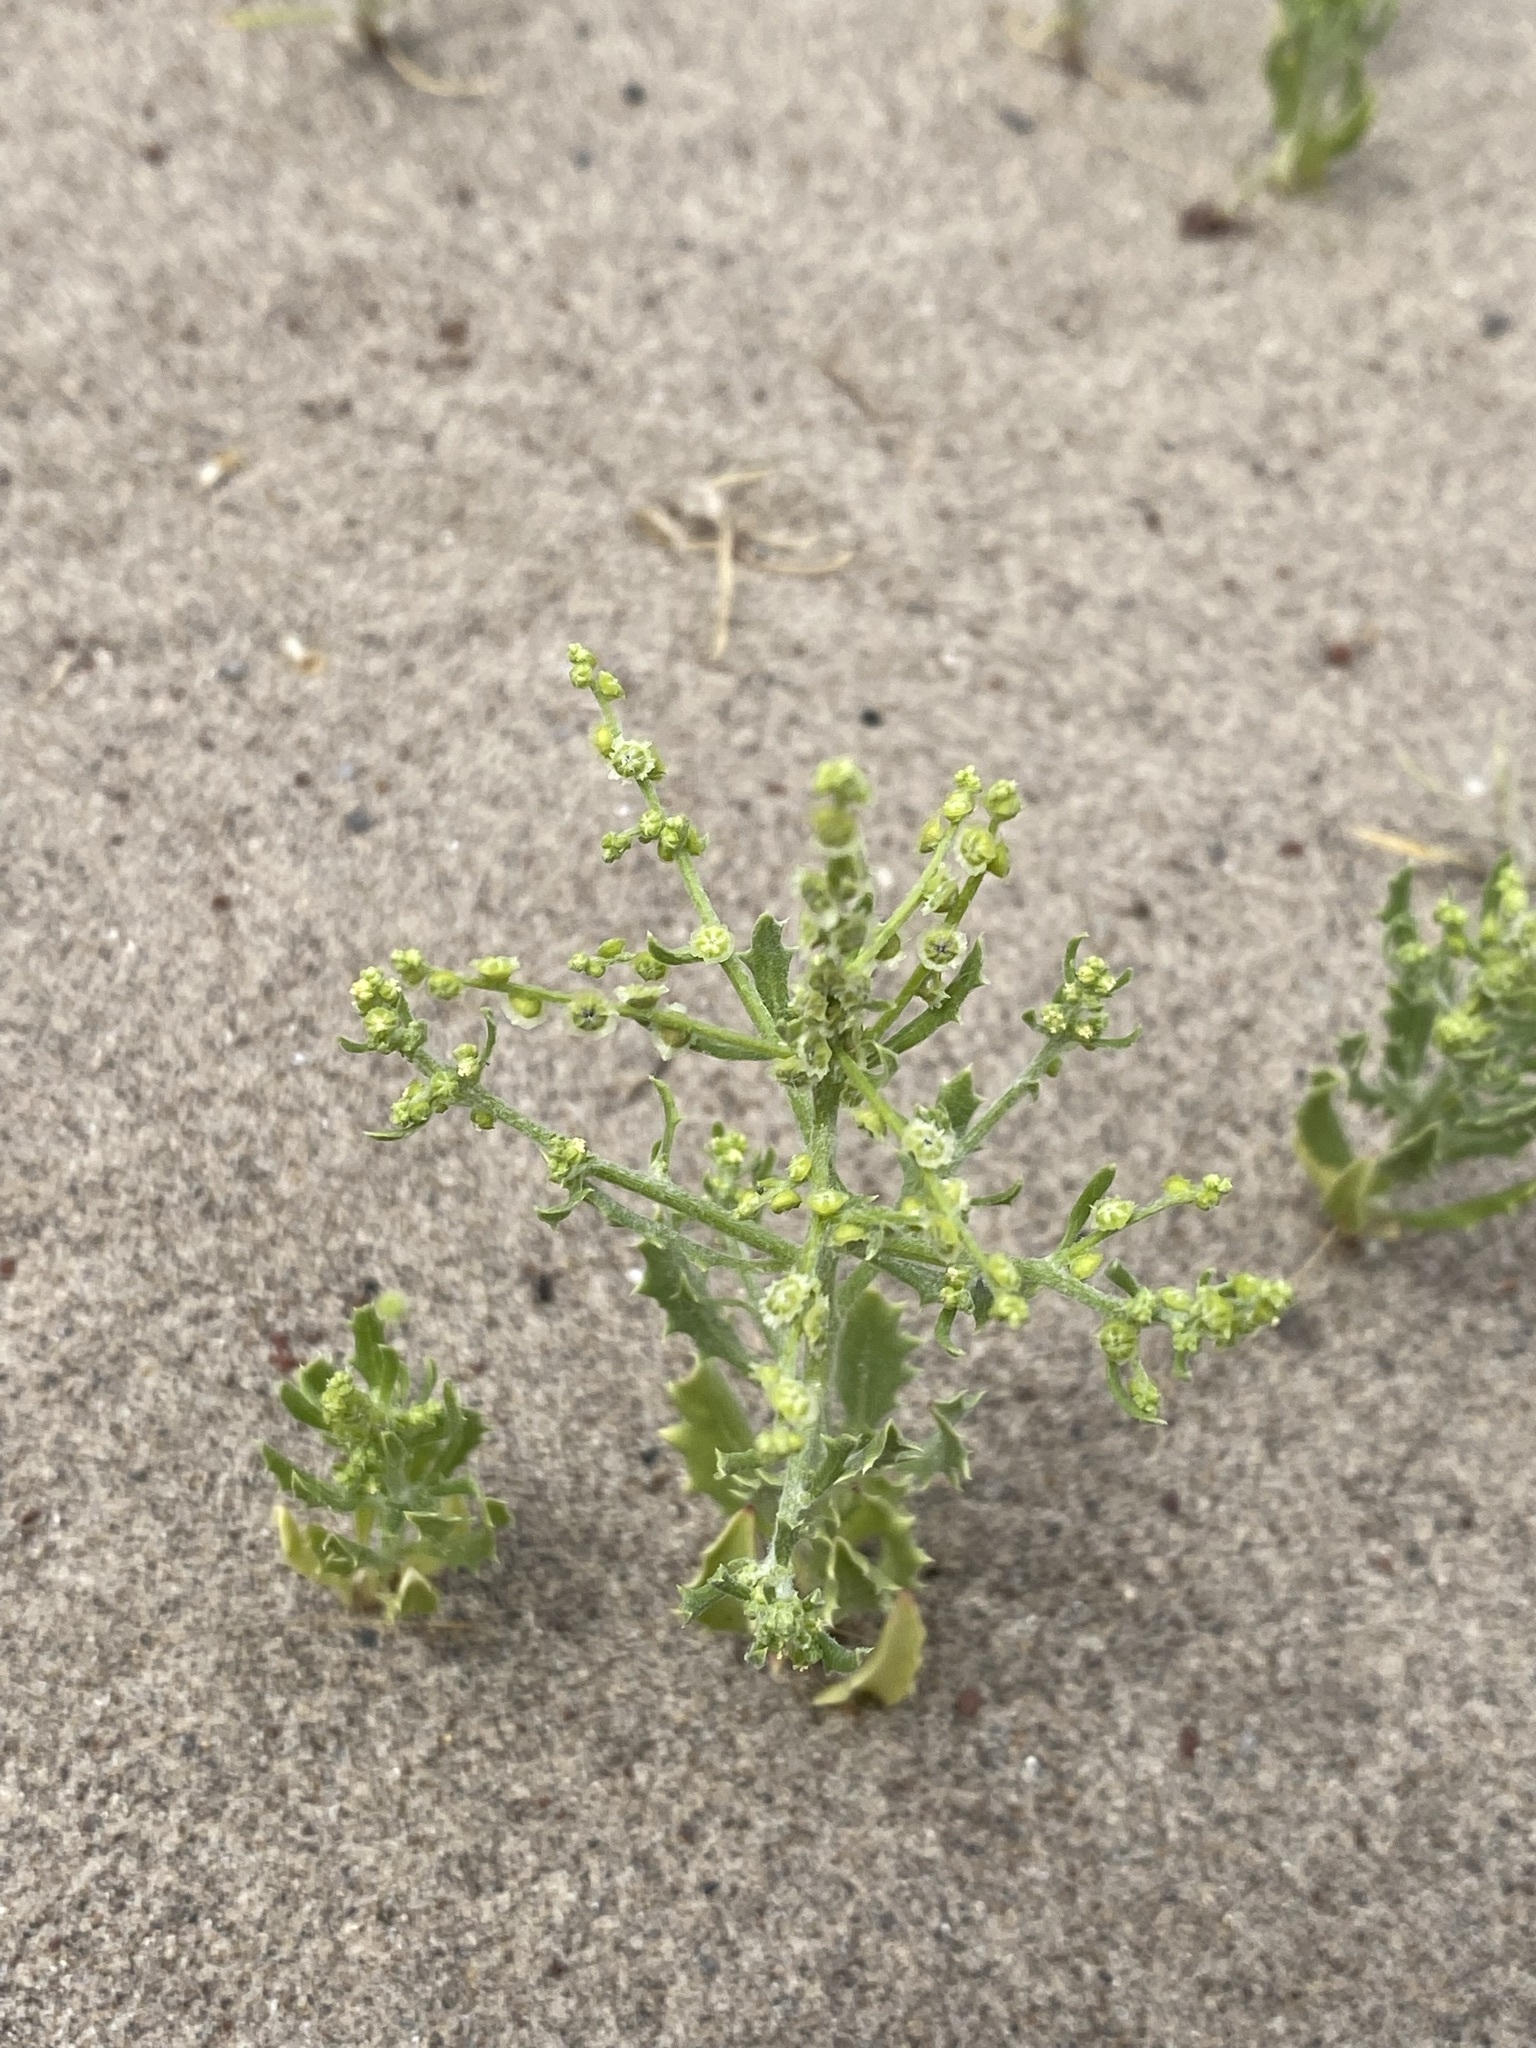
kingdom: Plantae
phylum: Tracheophyta
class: Magnoliopsida
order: Caryophyllales
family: Amaranthaceae
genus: Dysphania
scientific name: Dysphania atriplicifolia
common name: Plains tumbleweed
